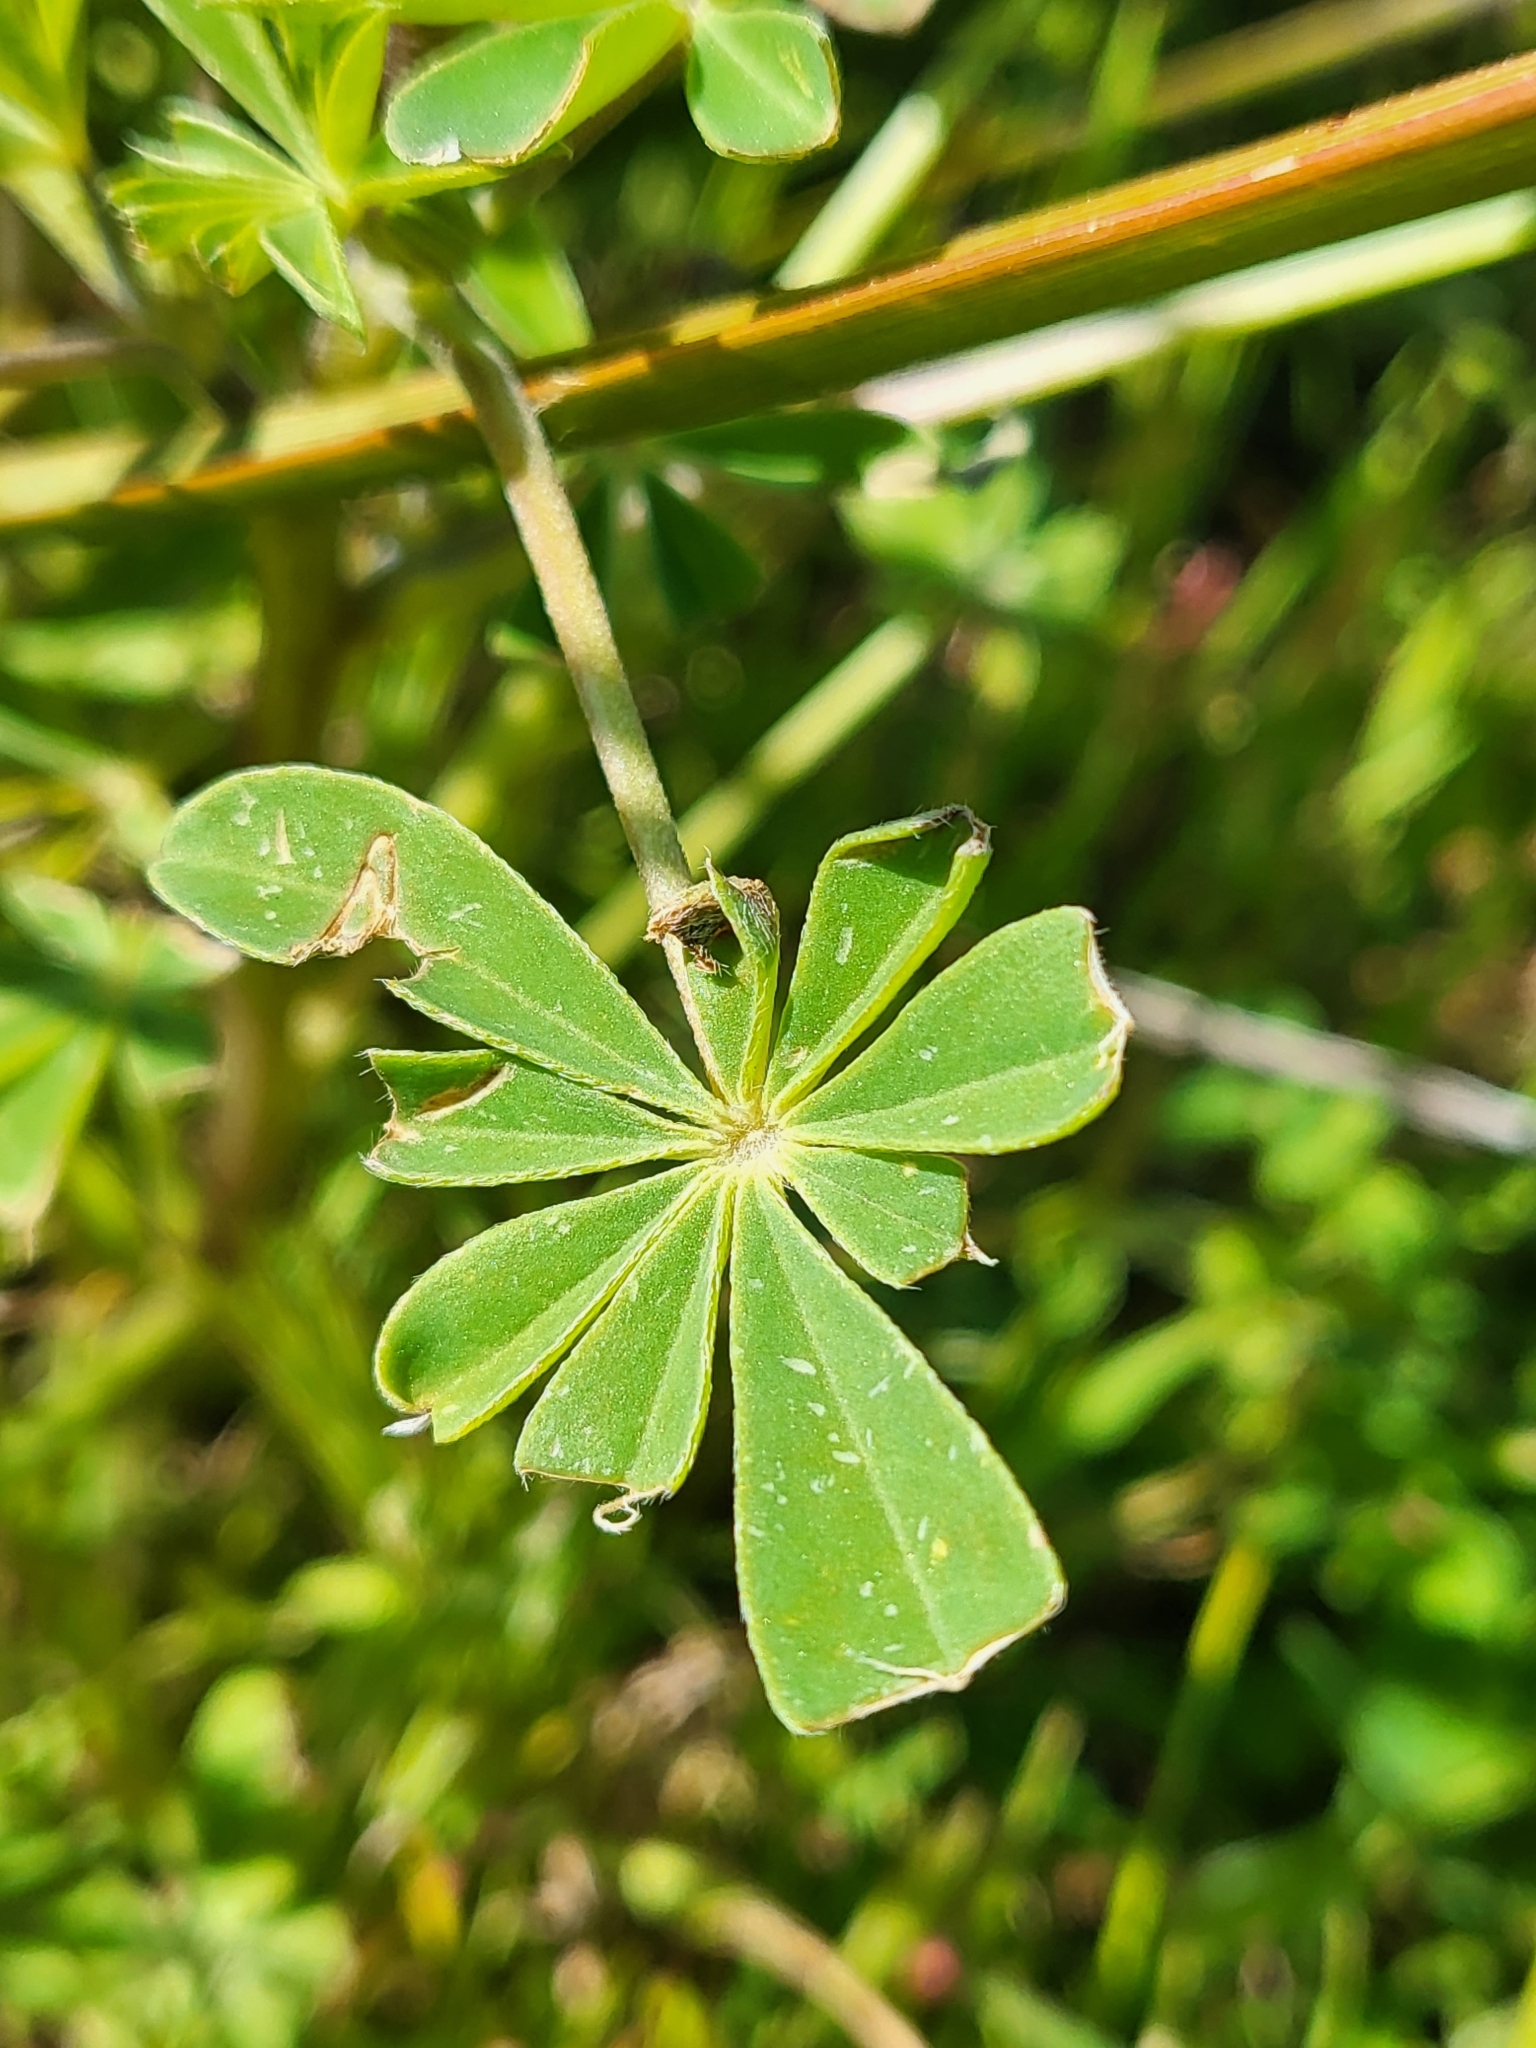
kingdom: Plantae
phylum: Tracheophyta
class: Magnoliopsida
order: Fabales
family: Fabaceae
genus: Lupinus
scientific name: Lupinus succulentus
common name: Arroyo lupine
